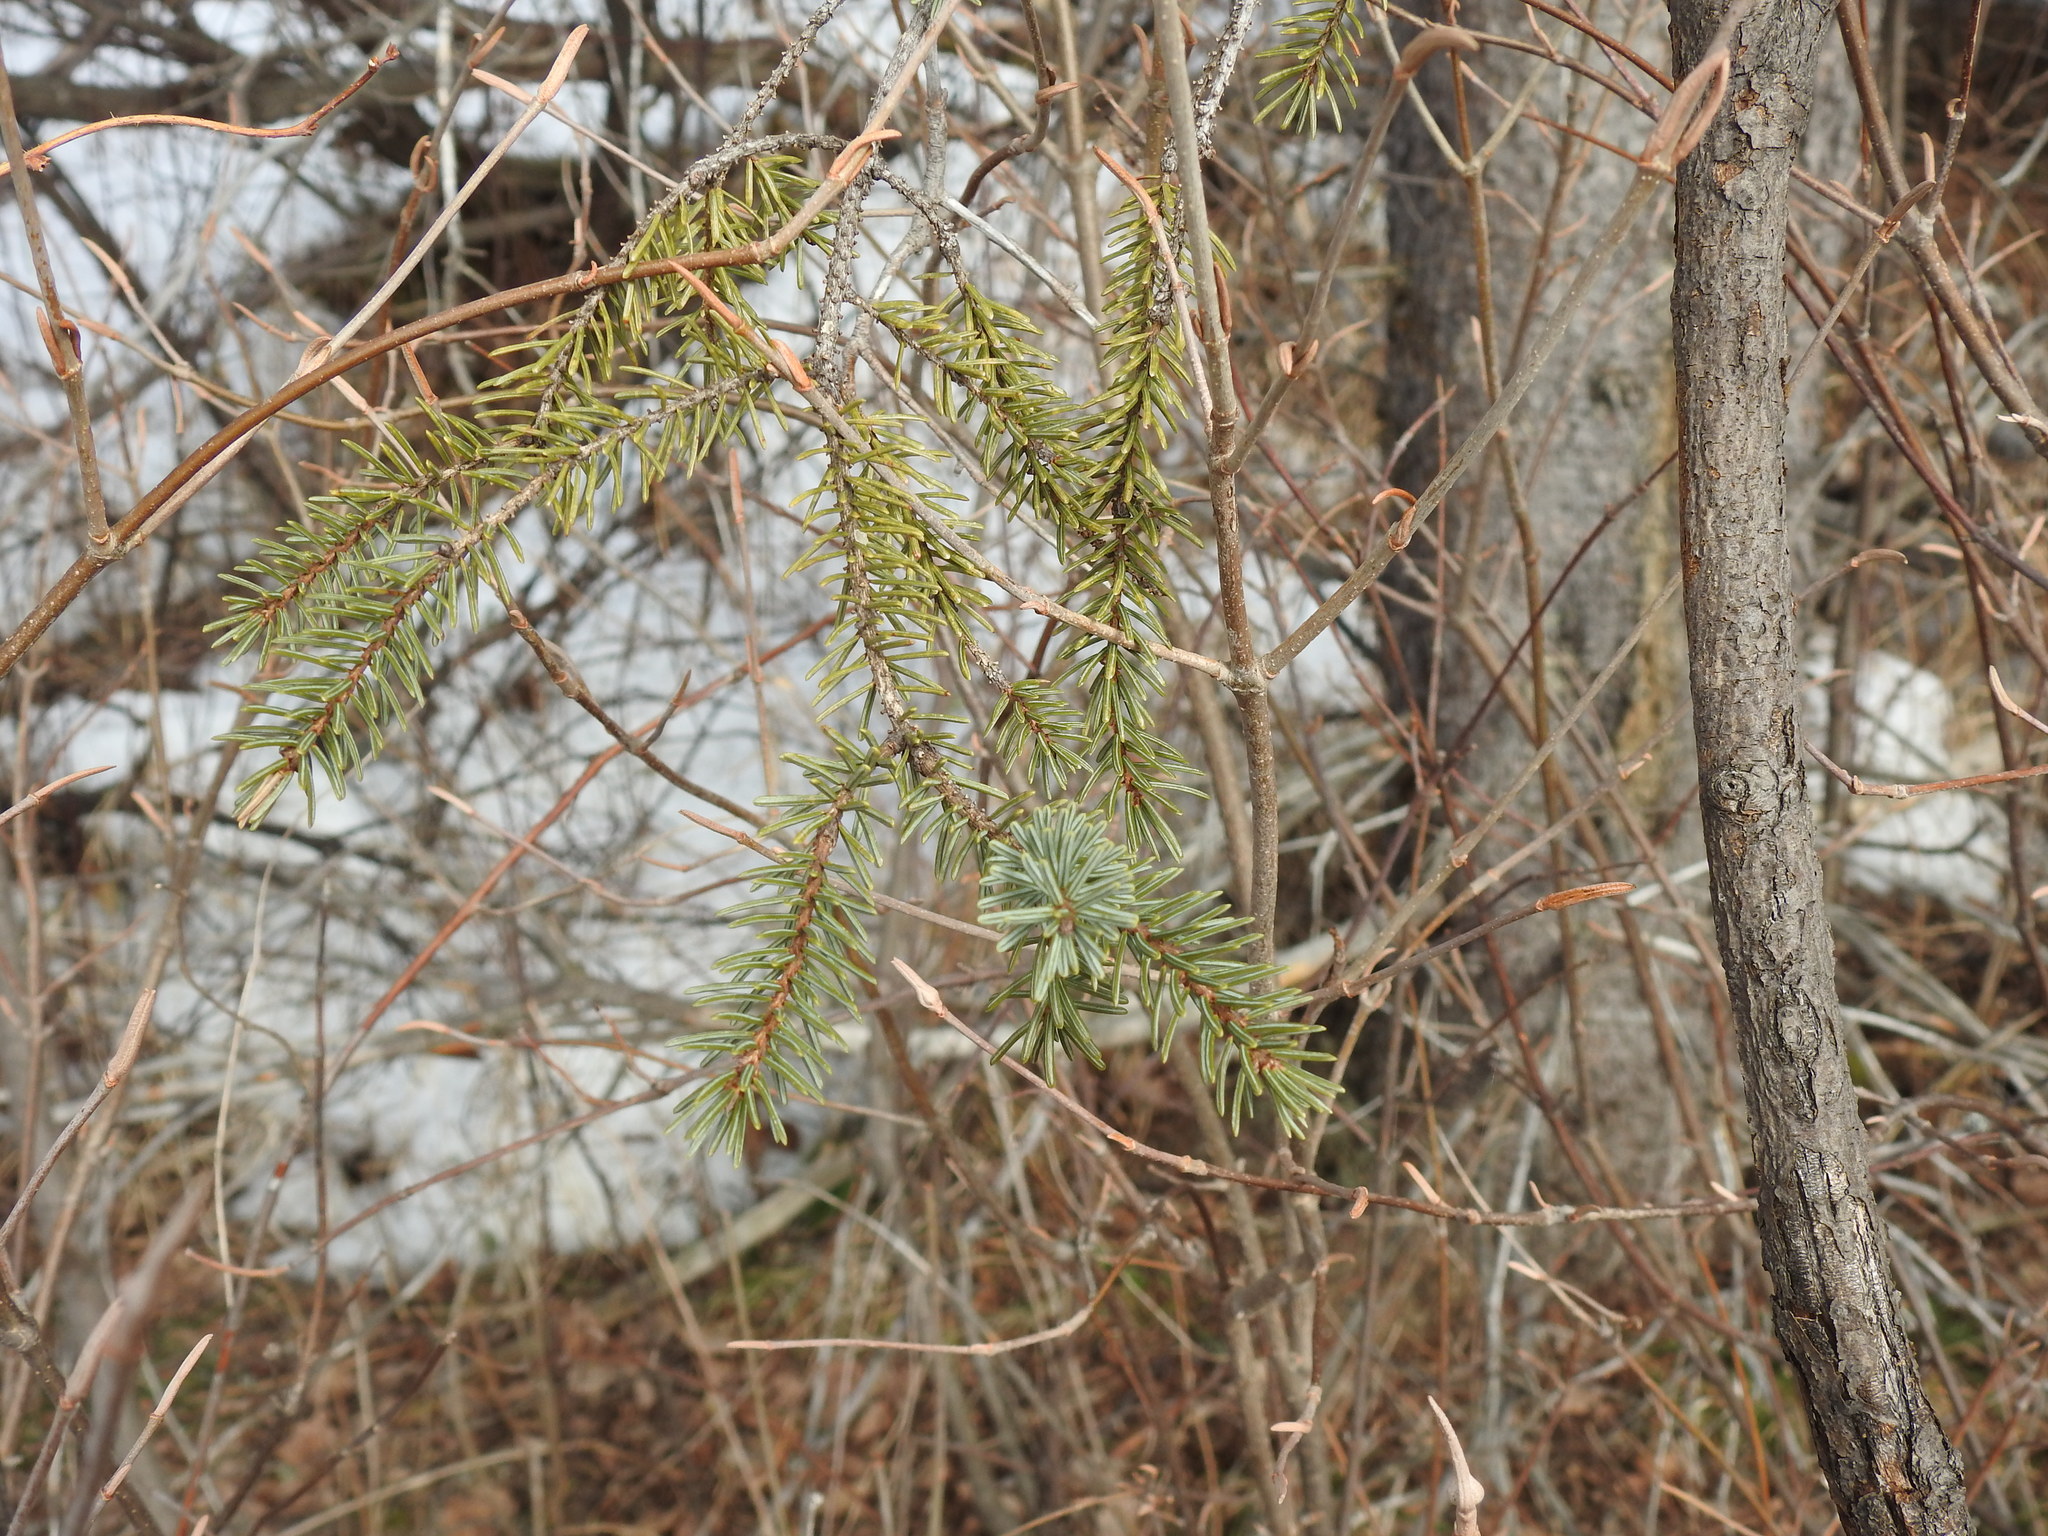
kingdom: Plantae
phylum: Tracheophyta
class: Pinopsida
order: Pinales
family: Pinaceae
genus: Picea
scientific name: Picea glauca
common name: White spruce
